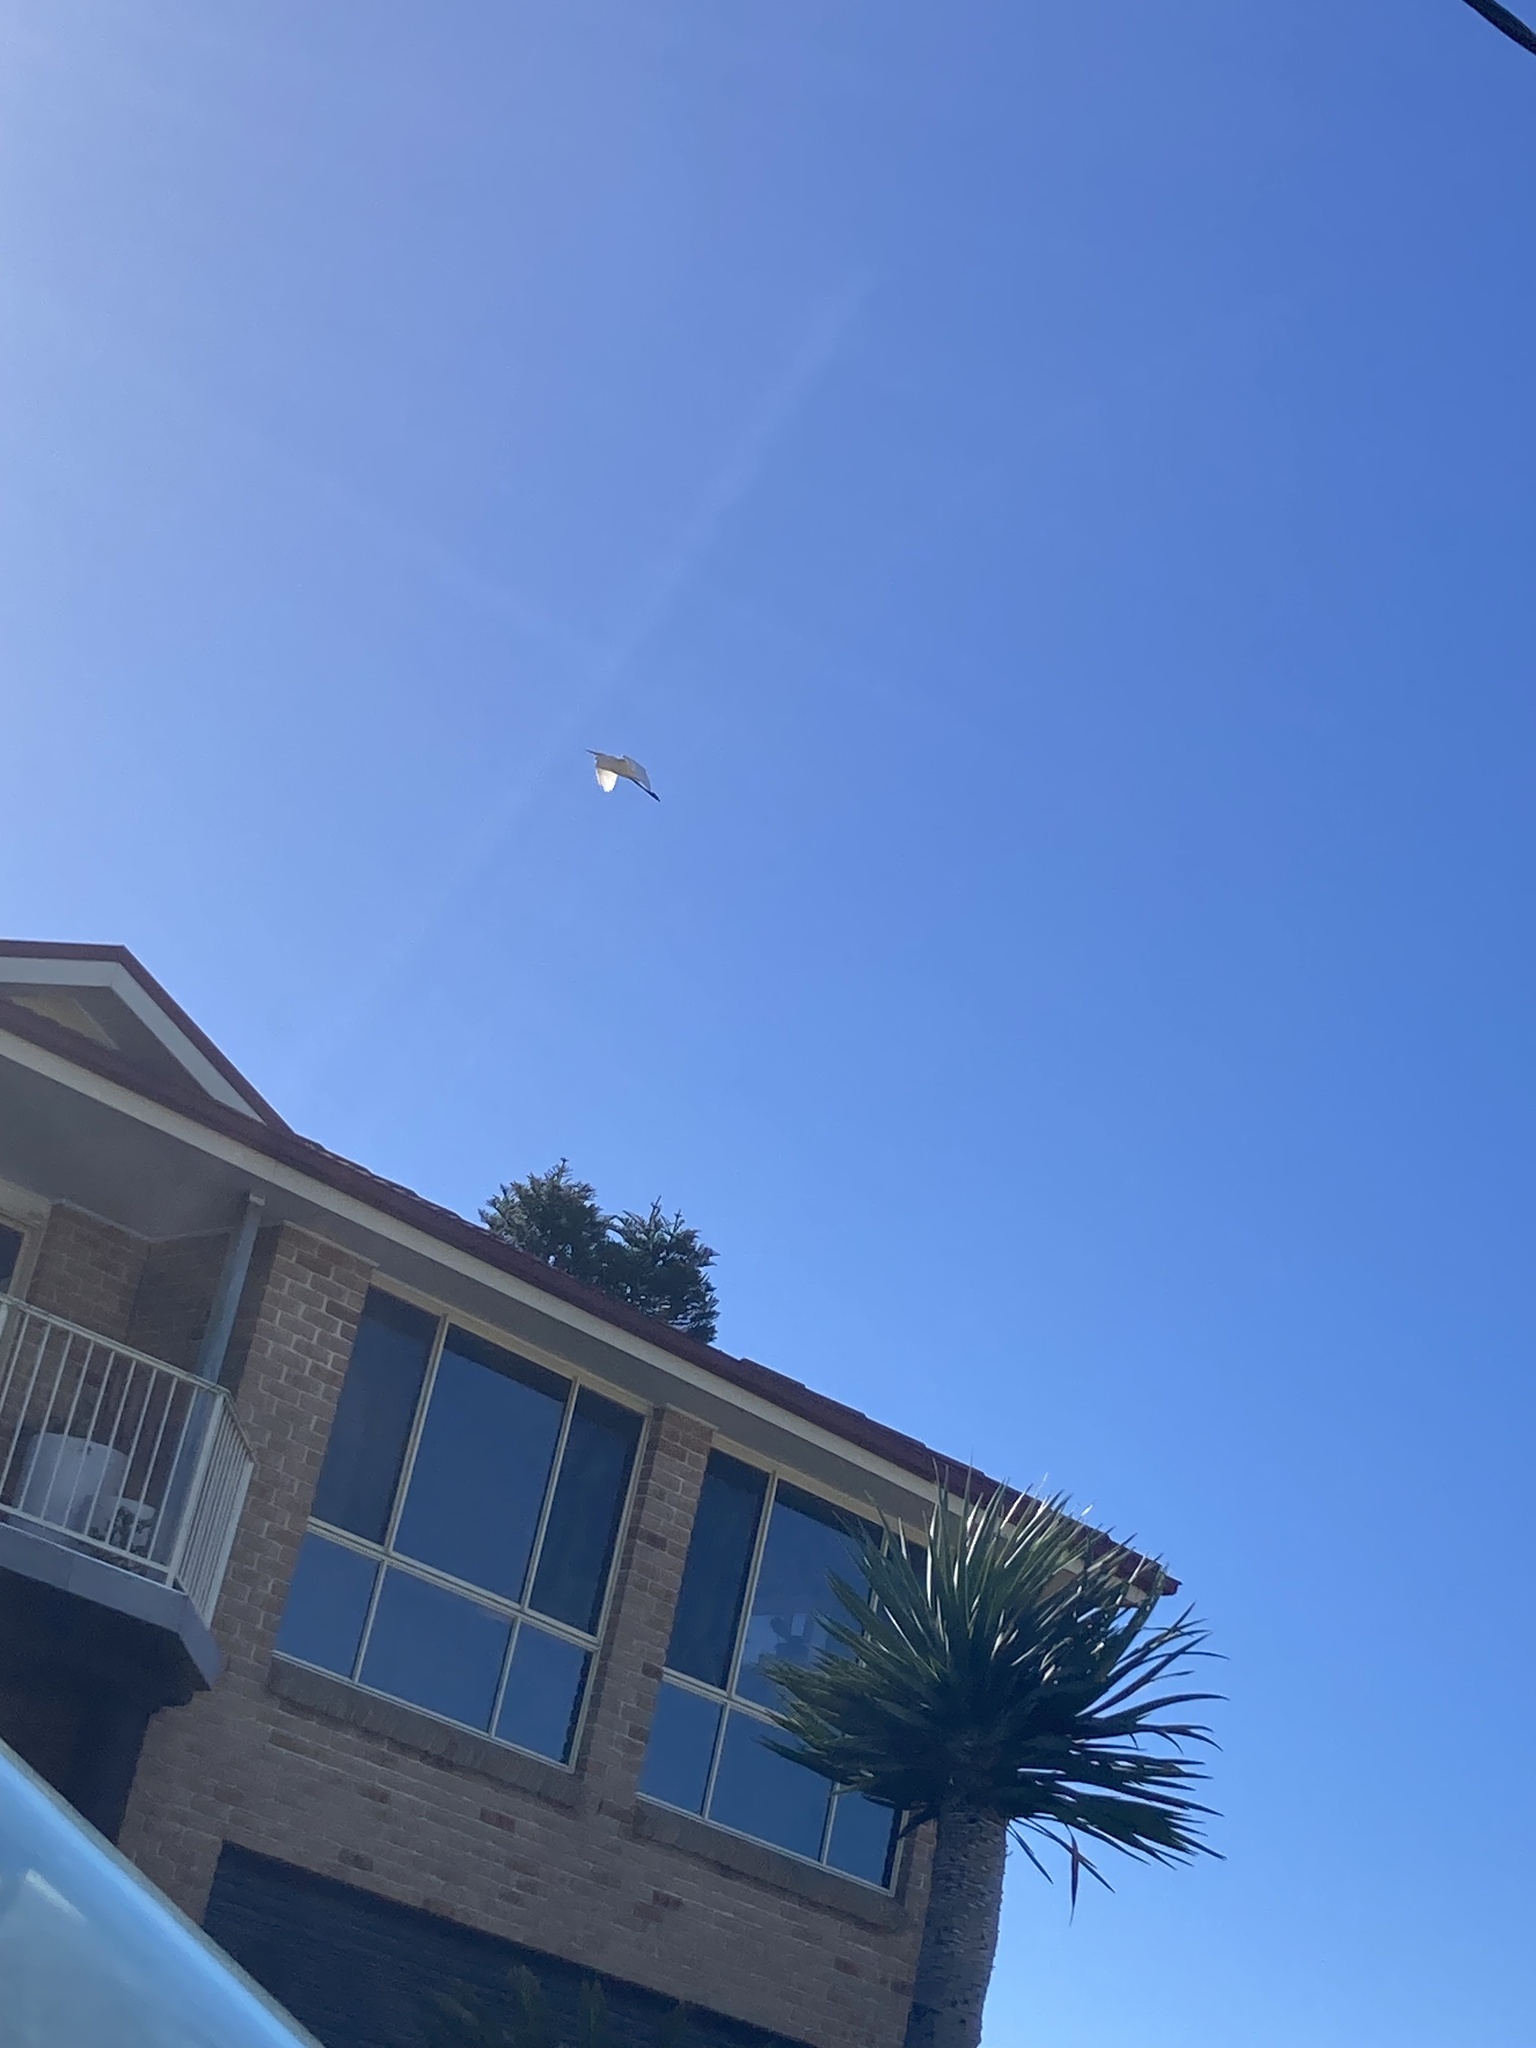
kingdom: Animalia
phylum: Chordata
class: Aves
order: Pelecaniformes
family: Ardeidae
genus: Ardea
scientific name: Ardea modesta
